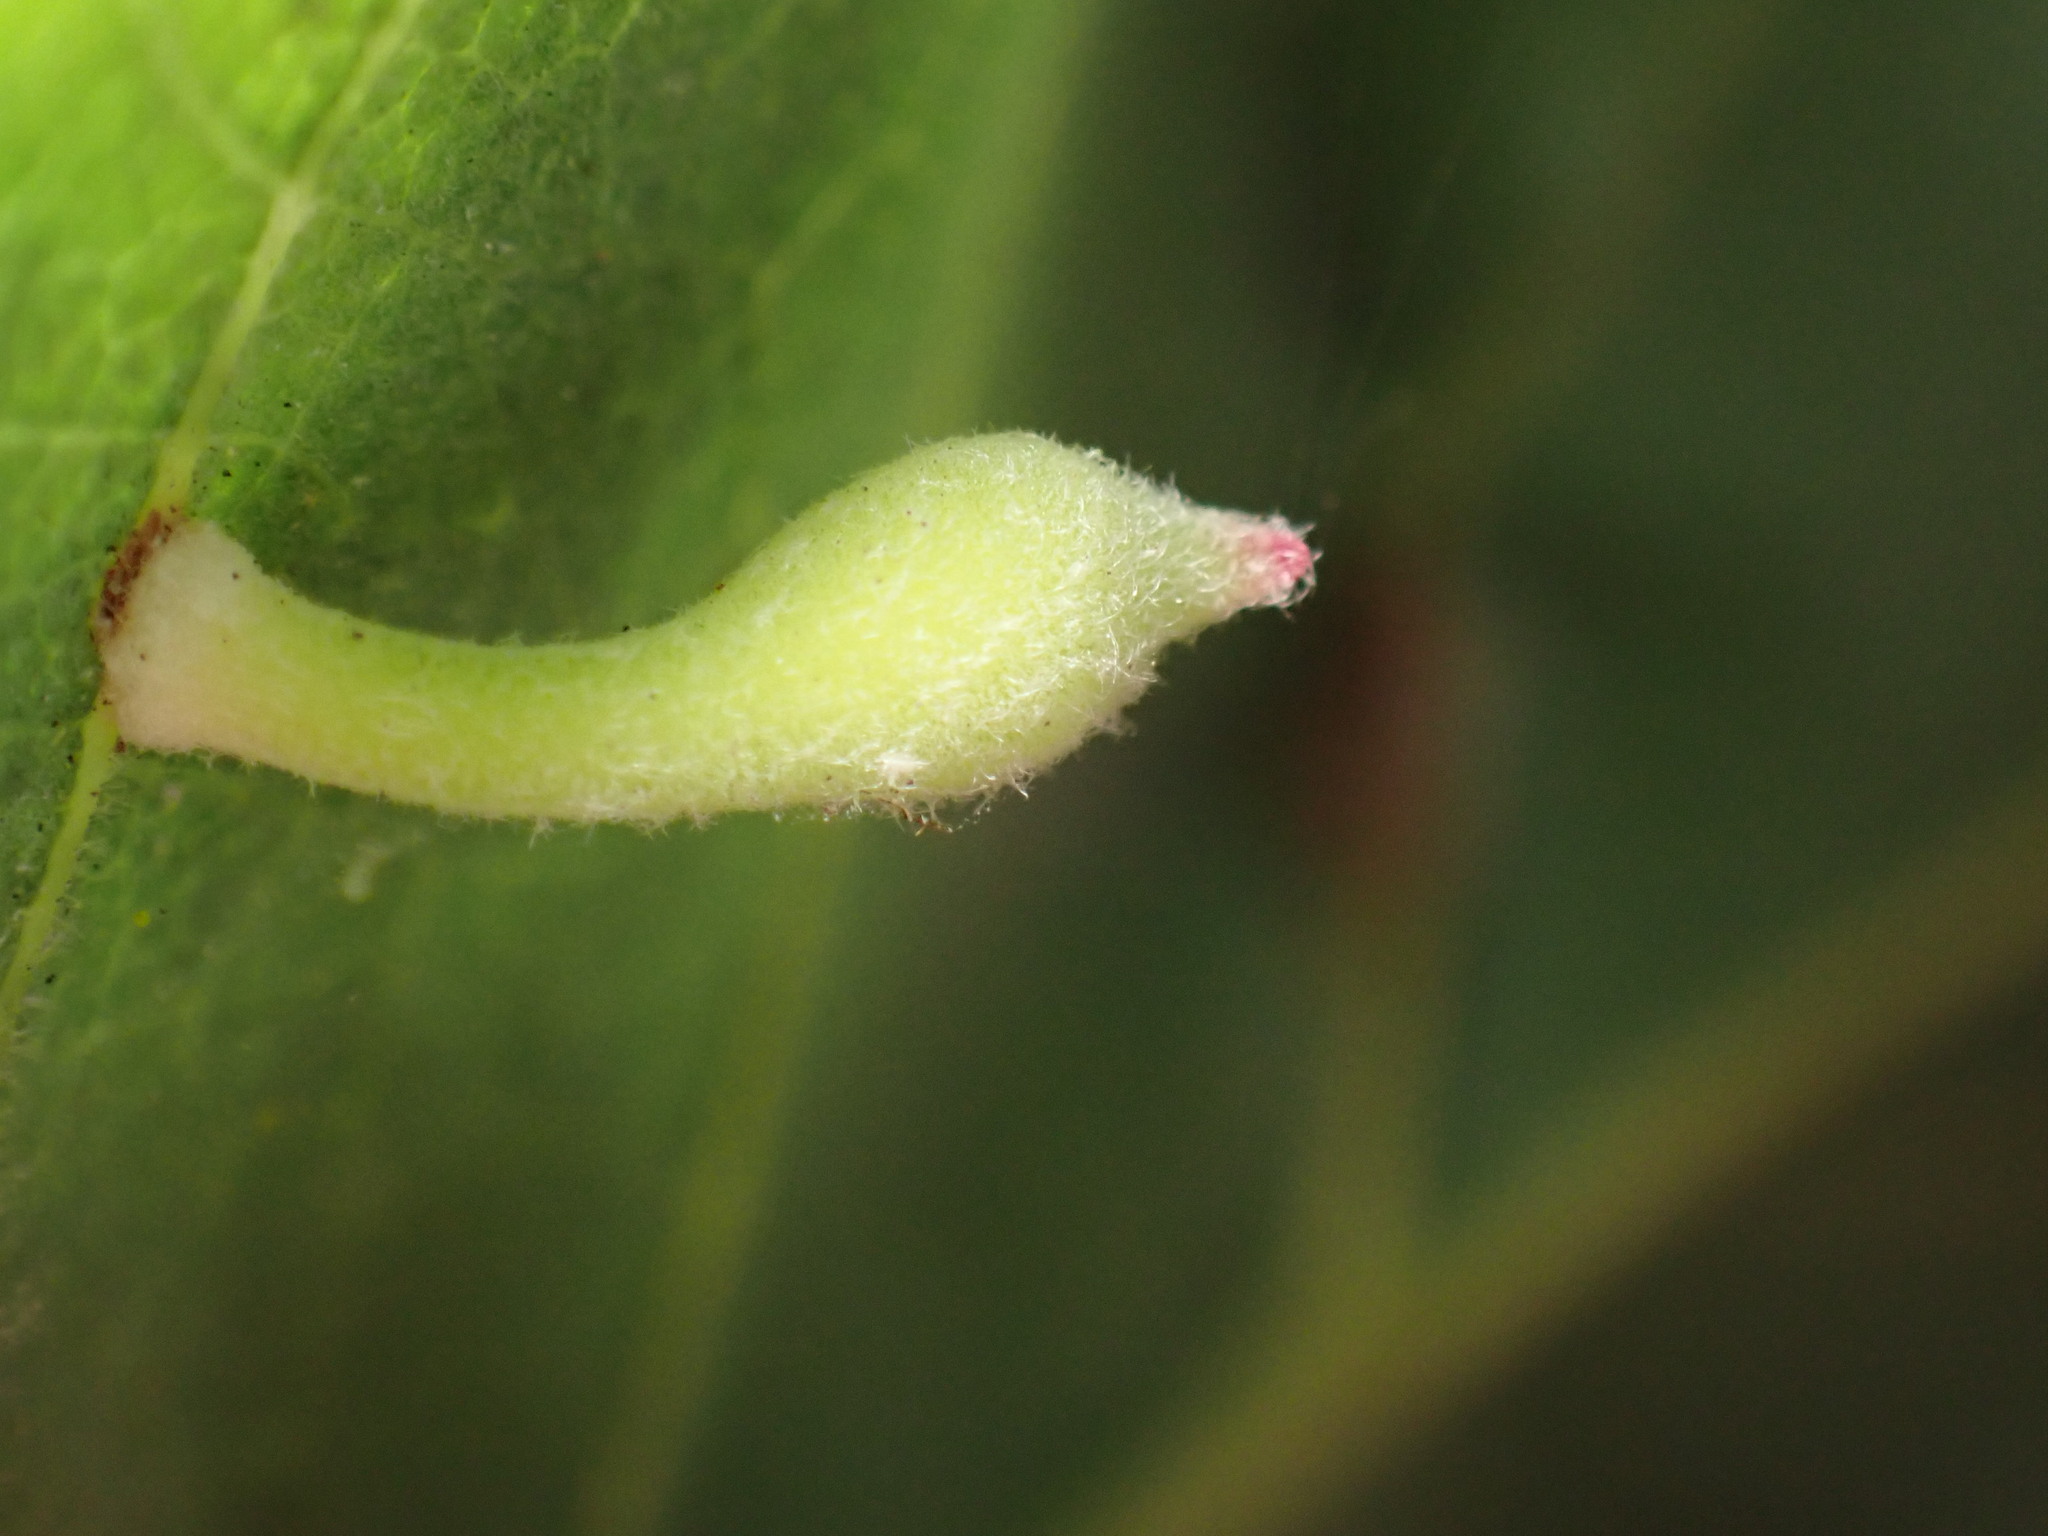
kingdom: Animalia
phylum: Arthropoda
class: Insecta
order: Hymenoptera
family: Cynipidae
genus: Atrusca
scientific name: Atrusca
